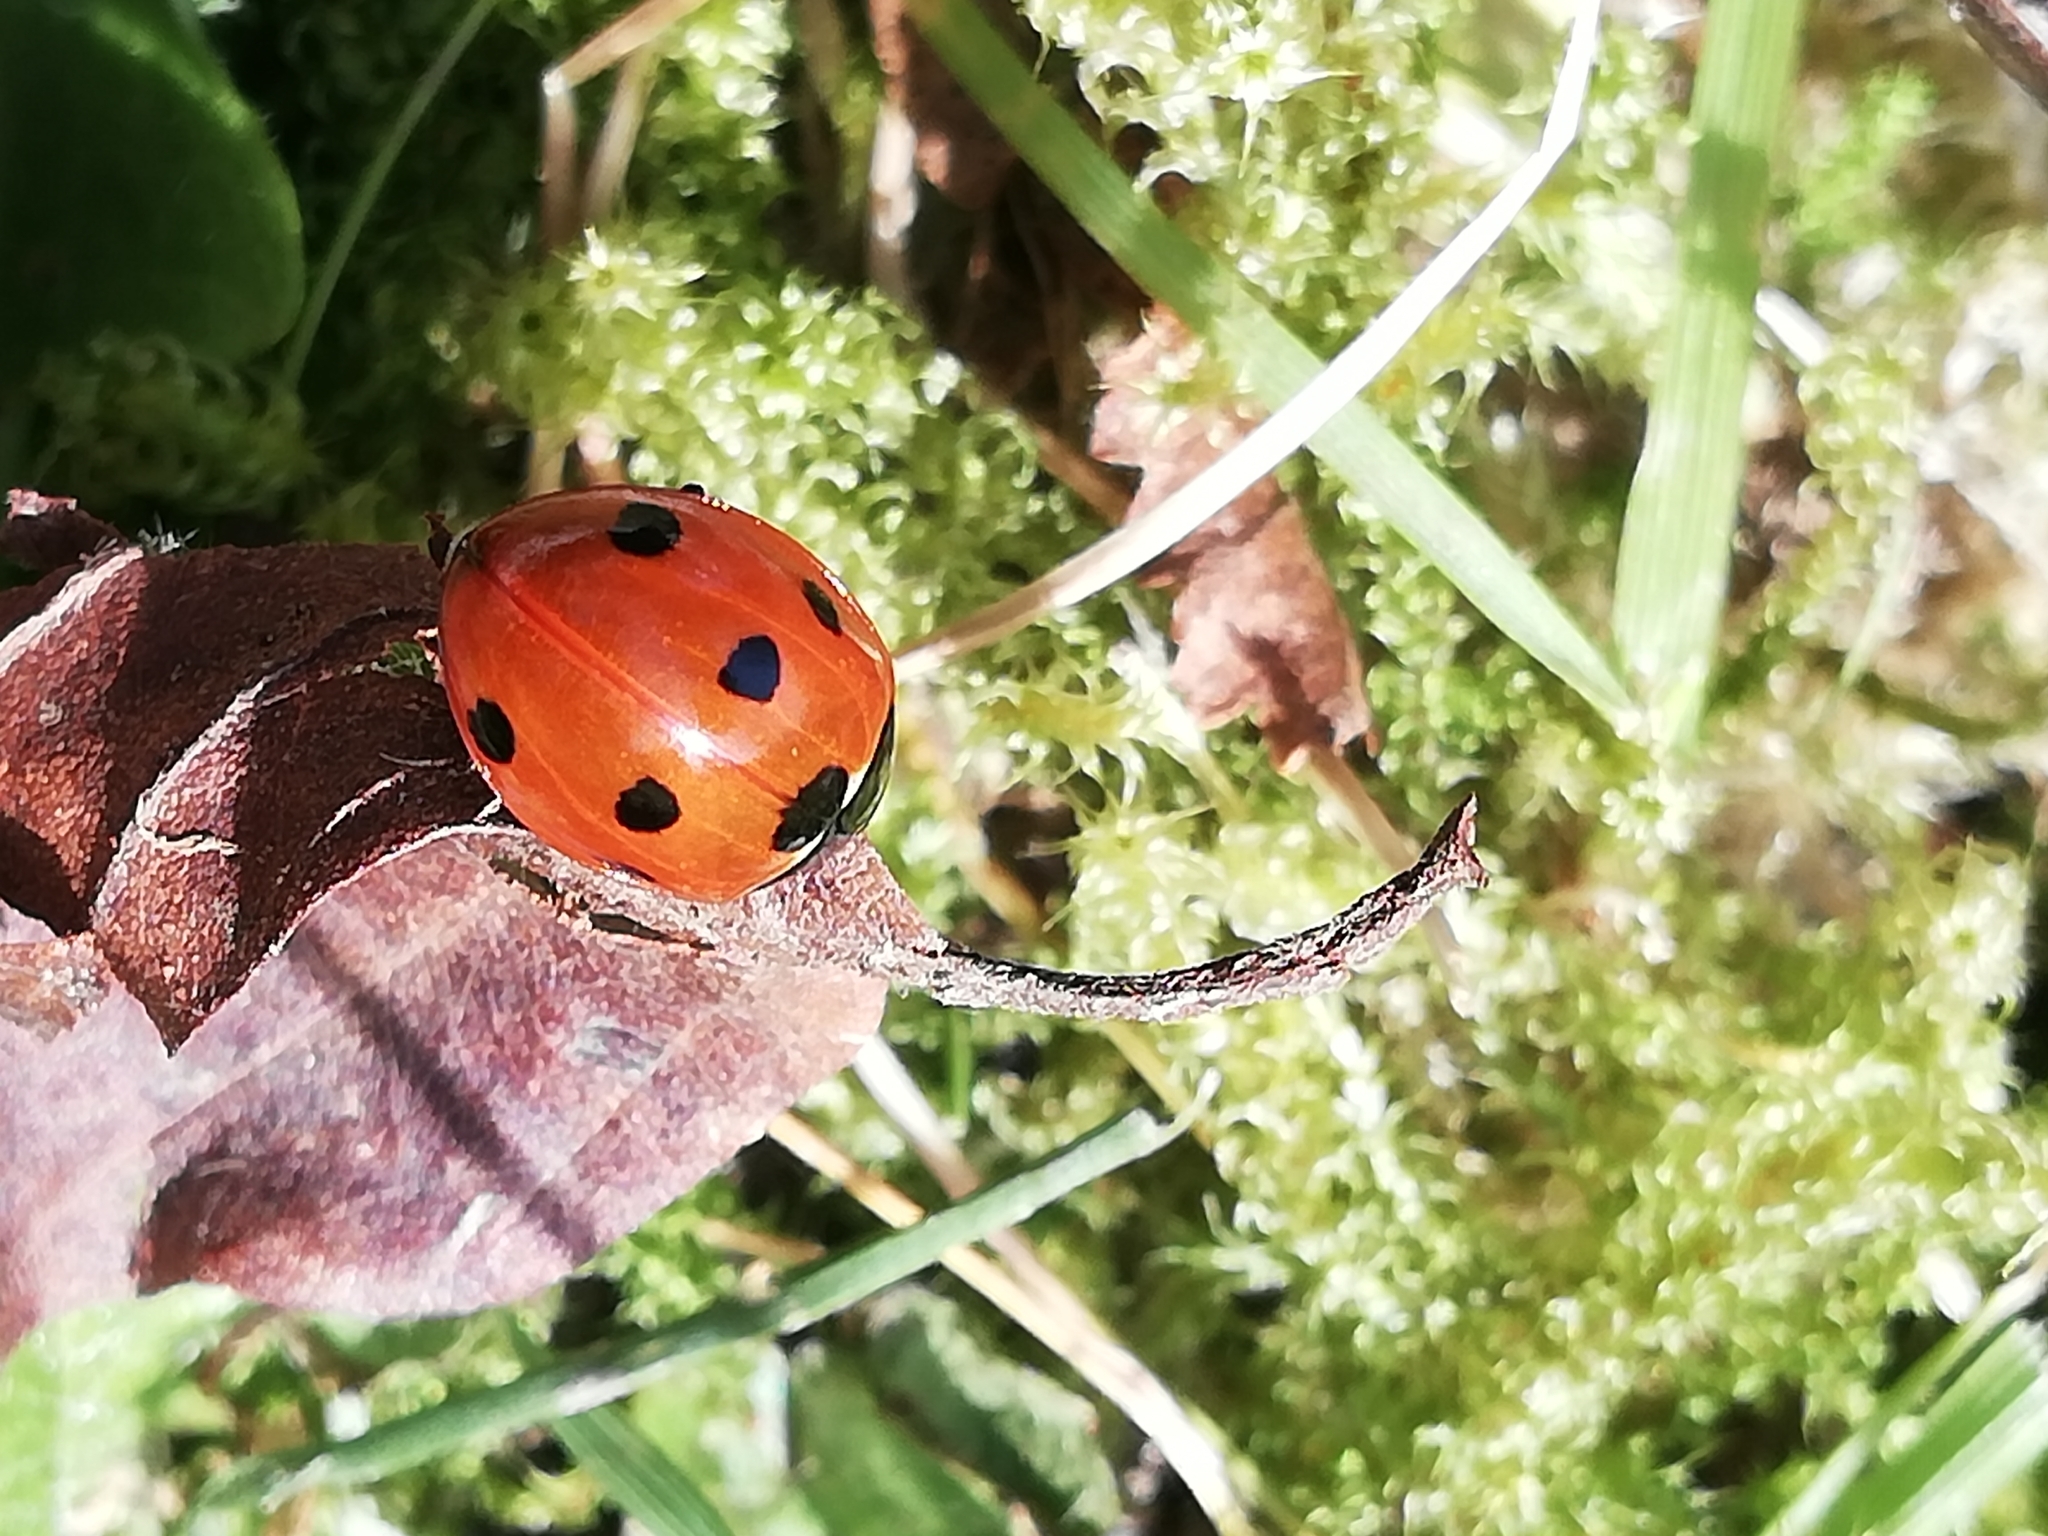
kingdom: Animalia
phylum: Arthropoda
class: Insecta
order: Coleoptera
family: Coccinellidae
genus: Coccinella
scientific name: Coccinella septempunctata
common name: Sevenspotted lady beetle
